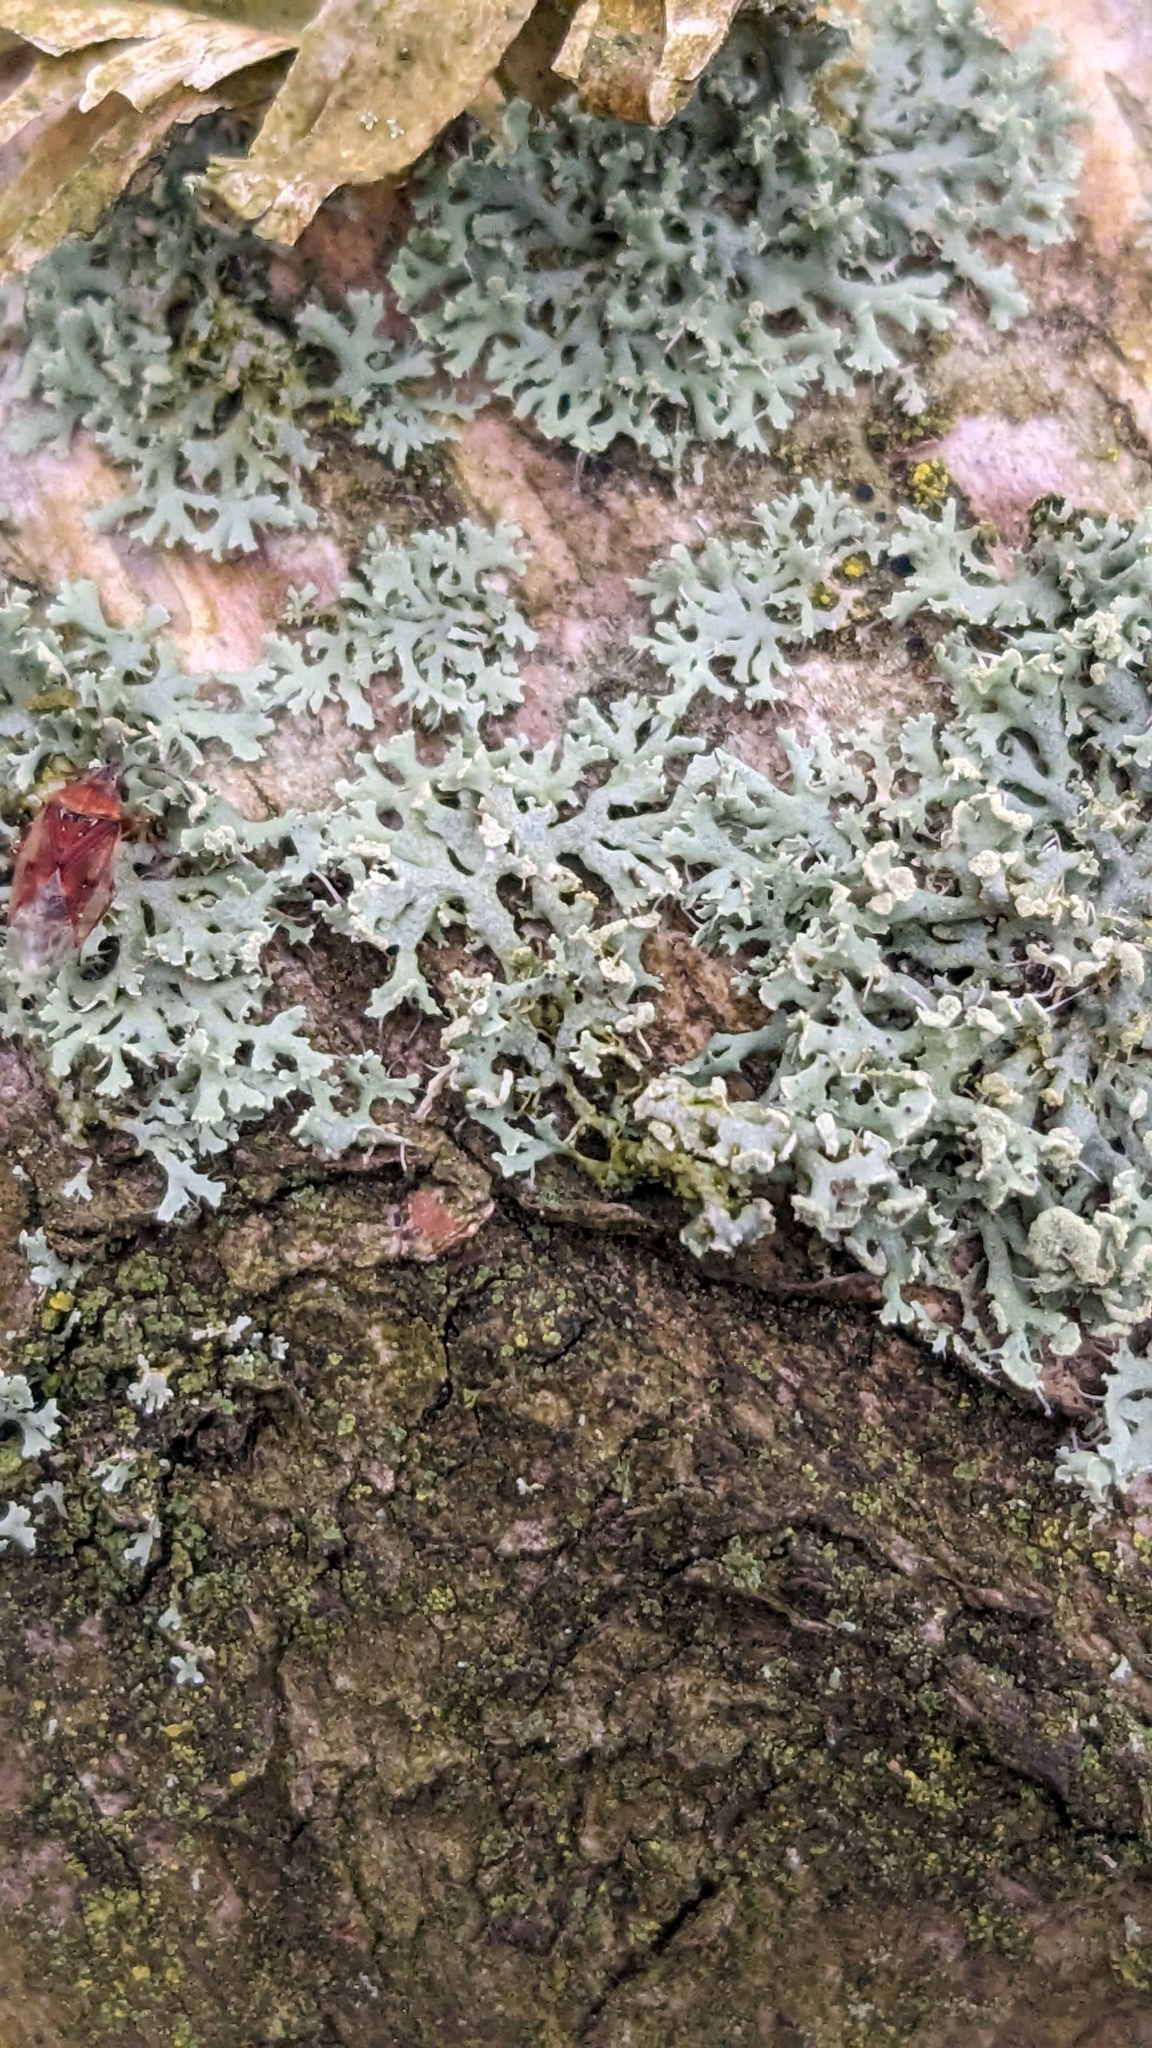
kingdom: Fungi
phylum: Ascomycota
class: Lecanoromycetes
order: Caliciales
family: Physciaceae
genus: Physcia
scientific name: Physcia tenella
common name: Fringed rosette lichen
